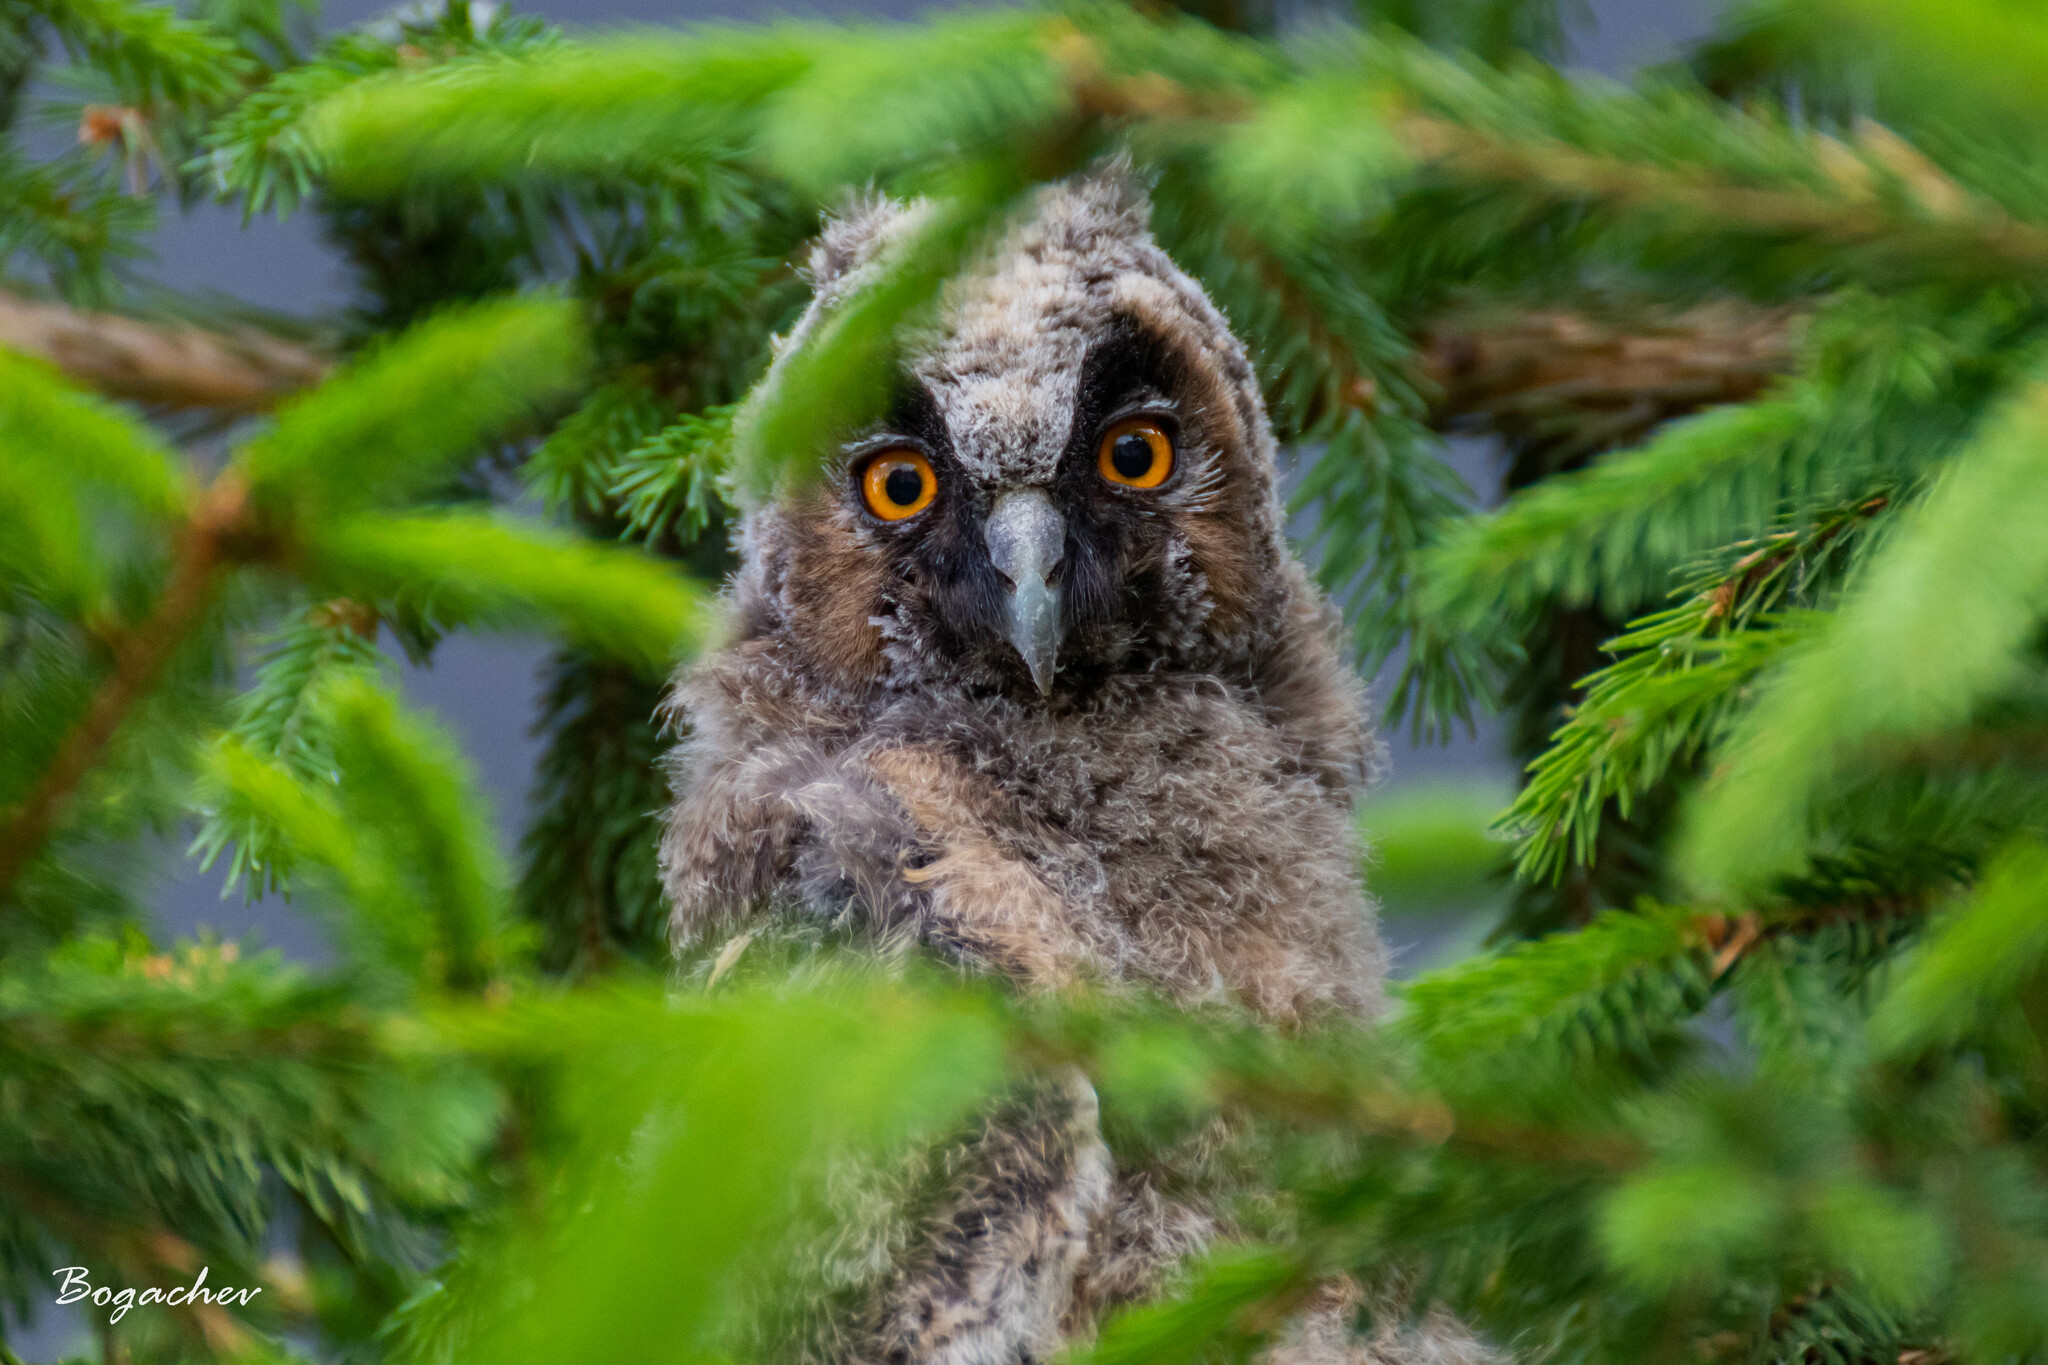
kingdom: Animalia
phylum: Chordata
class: Aves
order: Strigiformes
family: Strigidae
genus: Asio
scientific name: Asio otus
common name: Long-eared owl
